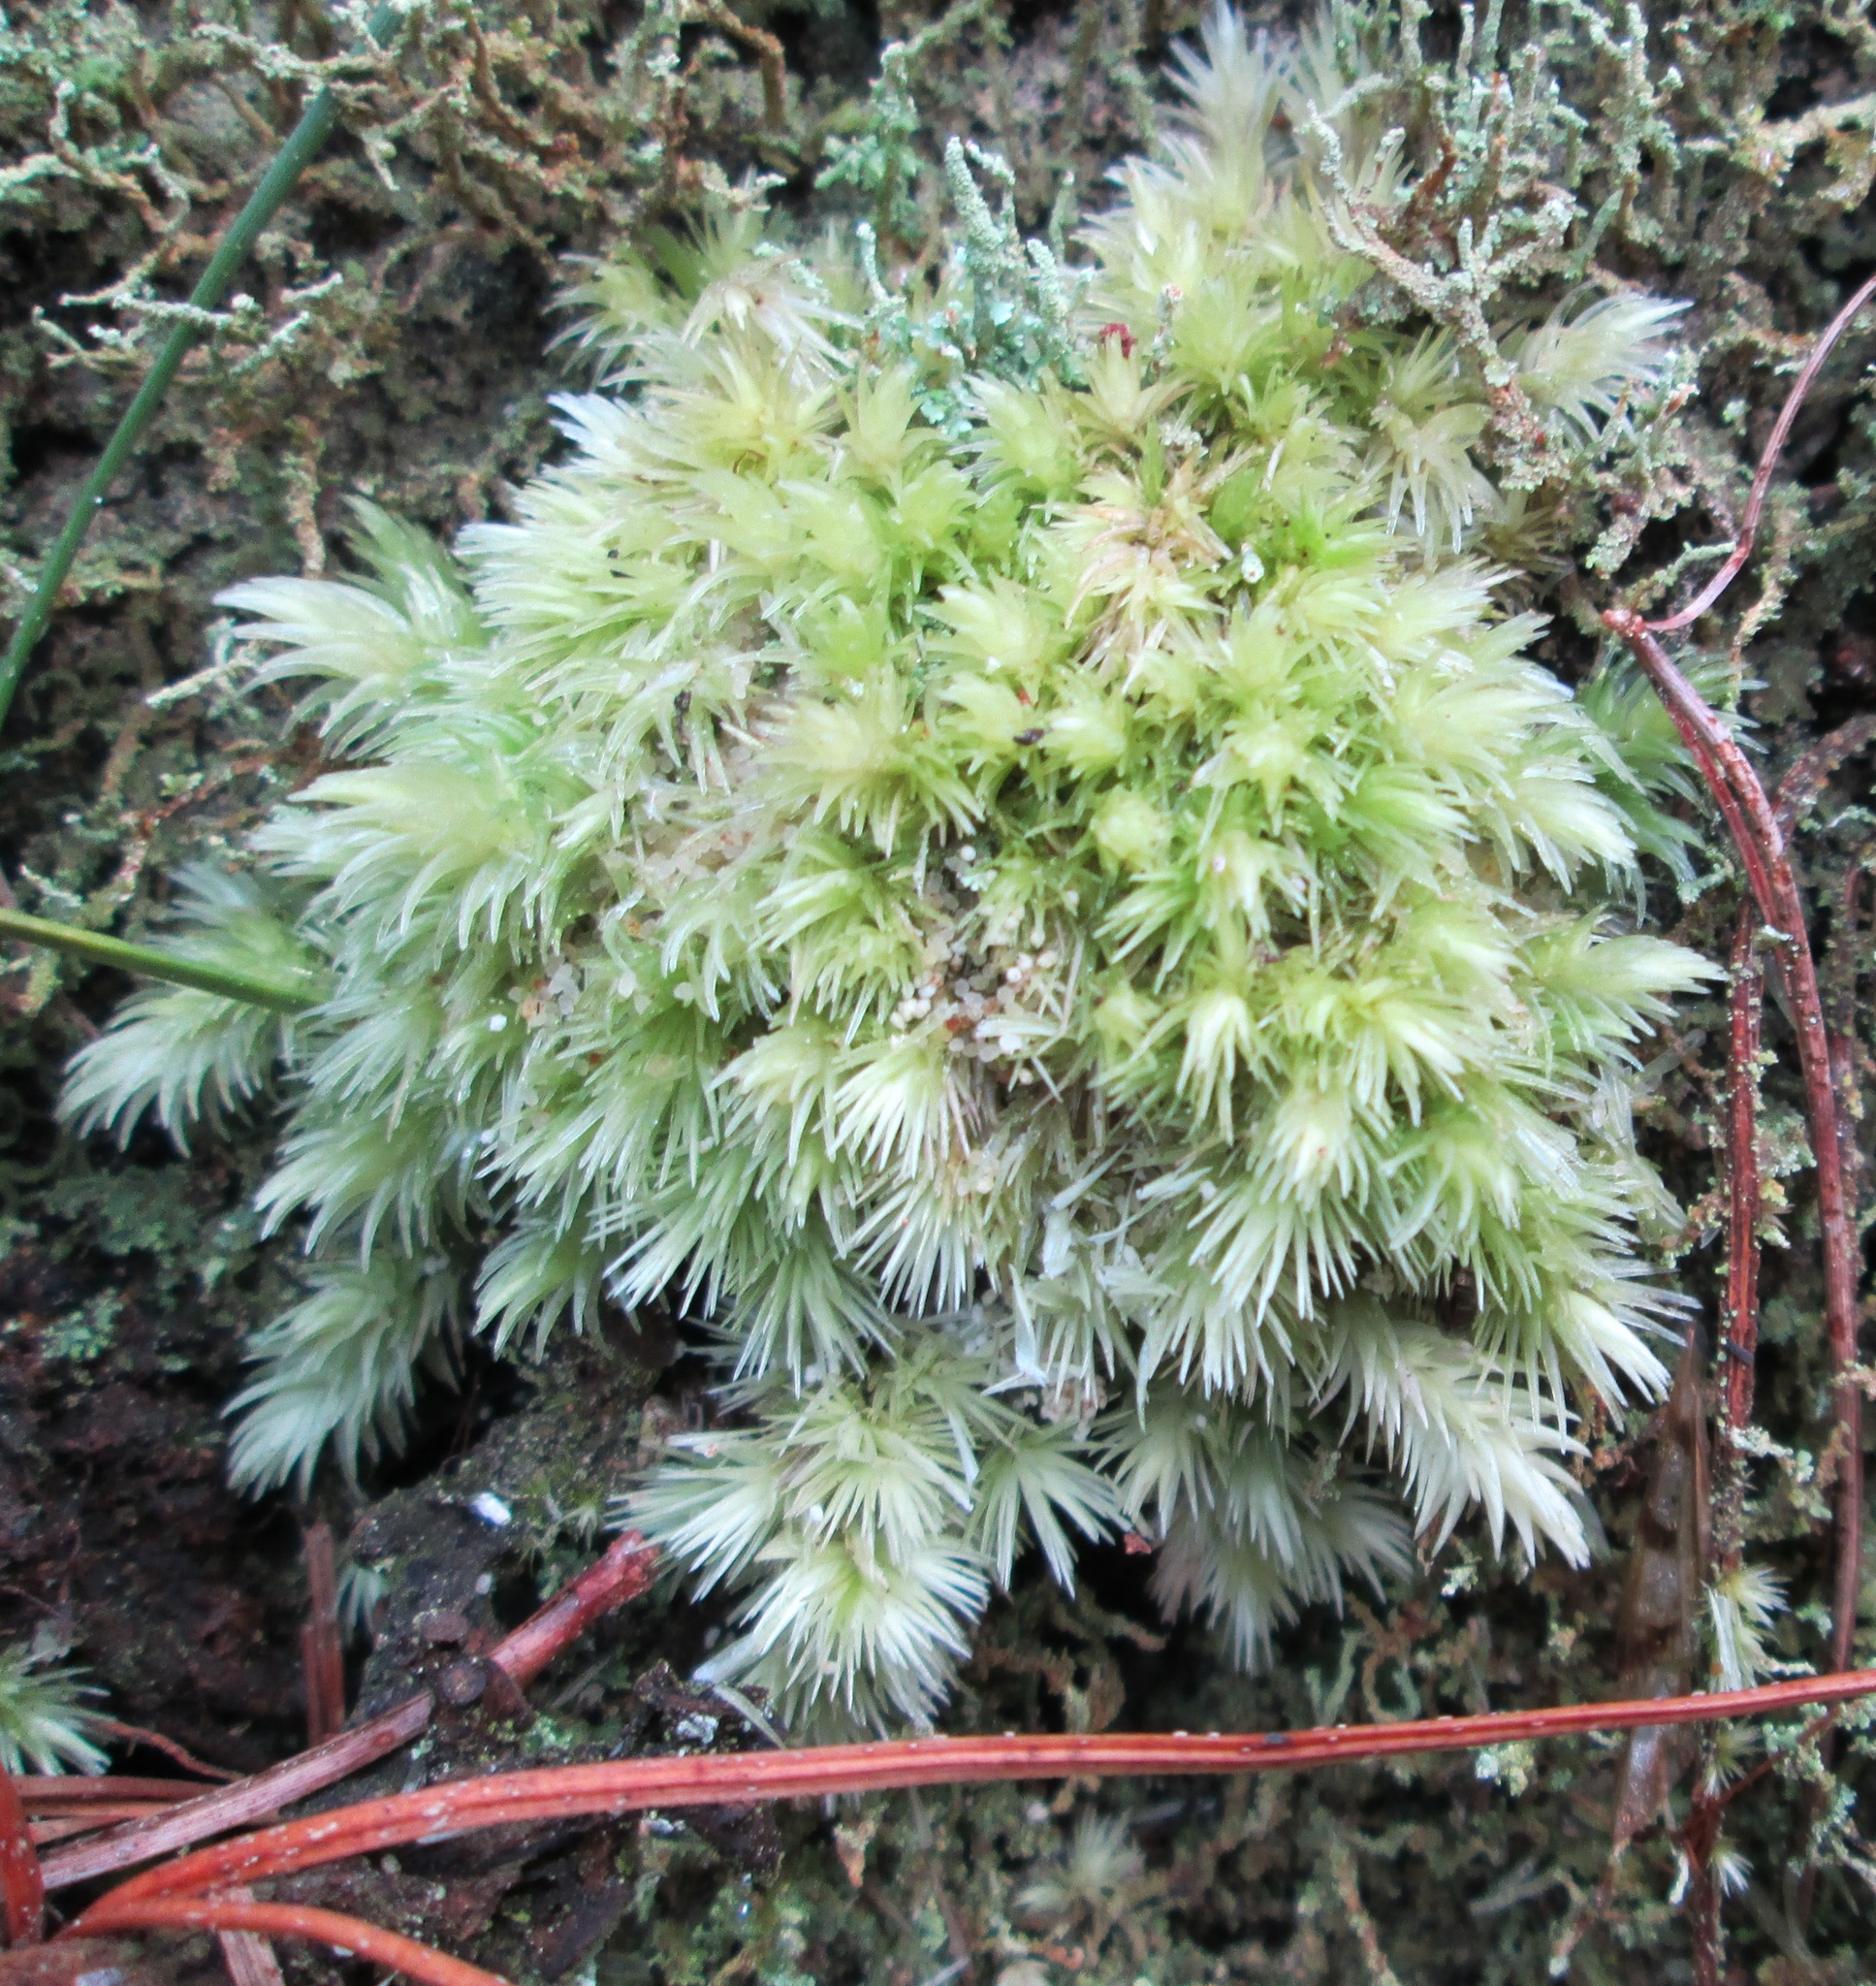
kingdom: Plantae
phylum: Bryophyta
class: Bryopsida
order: Dicranales
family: Leucobryaceae
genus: Leucobryum
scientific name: Leucobryum javense
